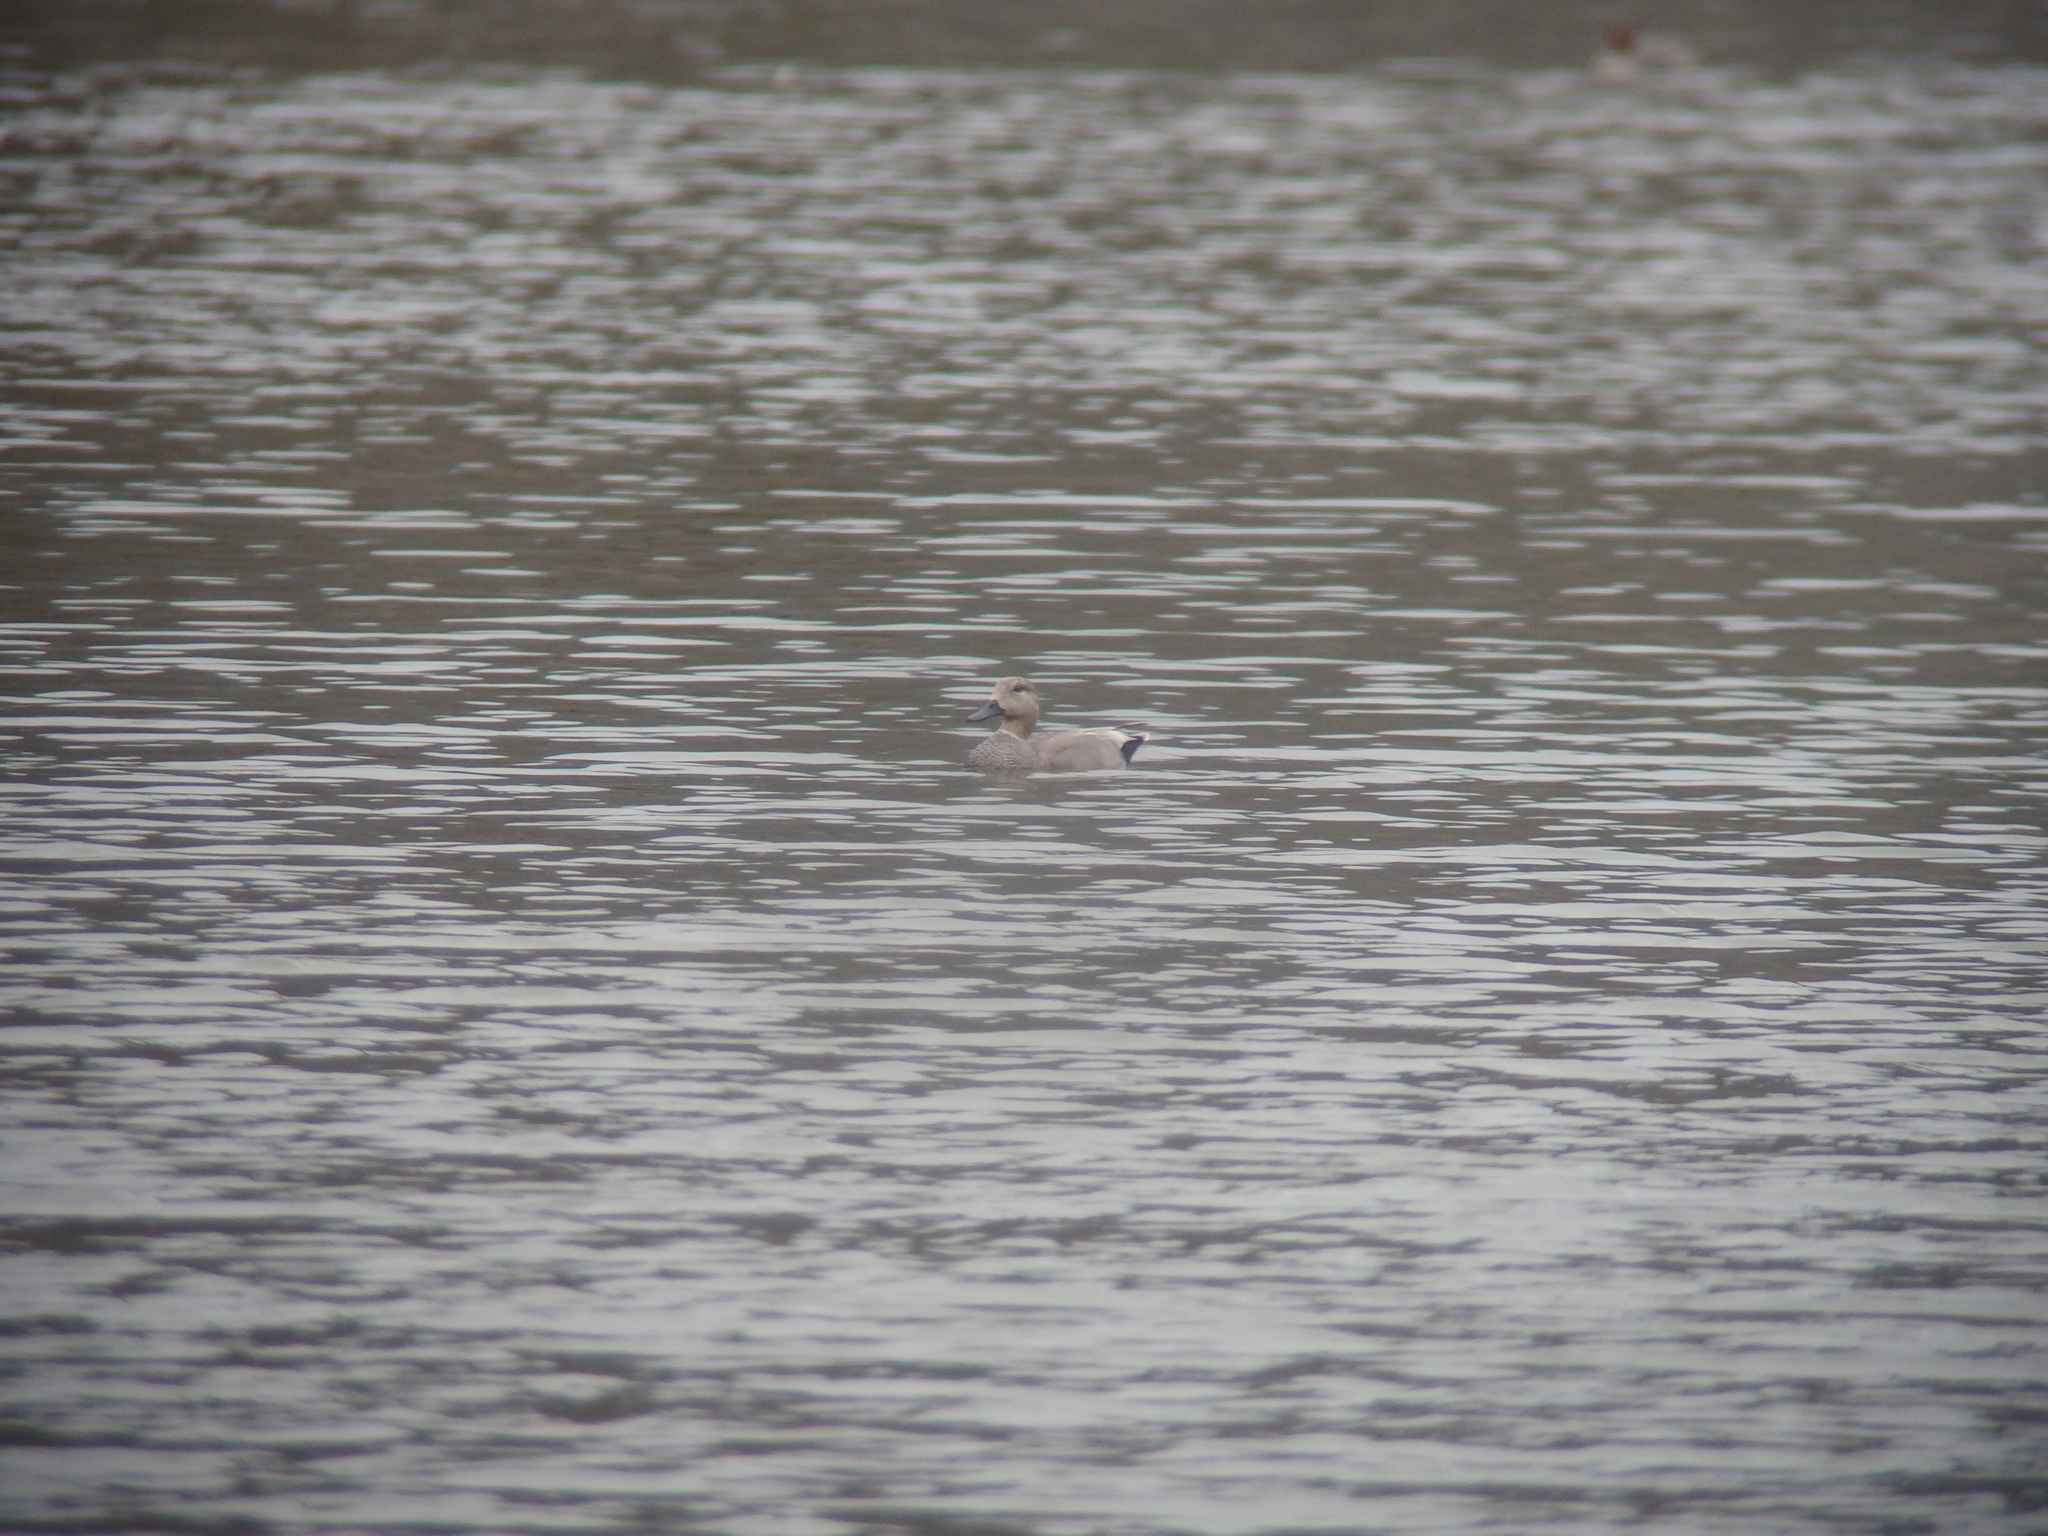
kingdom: Animalia
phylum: Chordata
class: Aves
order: Anseriformes
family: Anatidae
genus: Mareca
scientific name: Mareca strepera
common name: Gadwall
